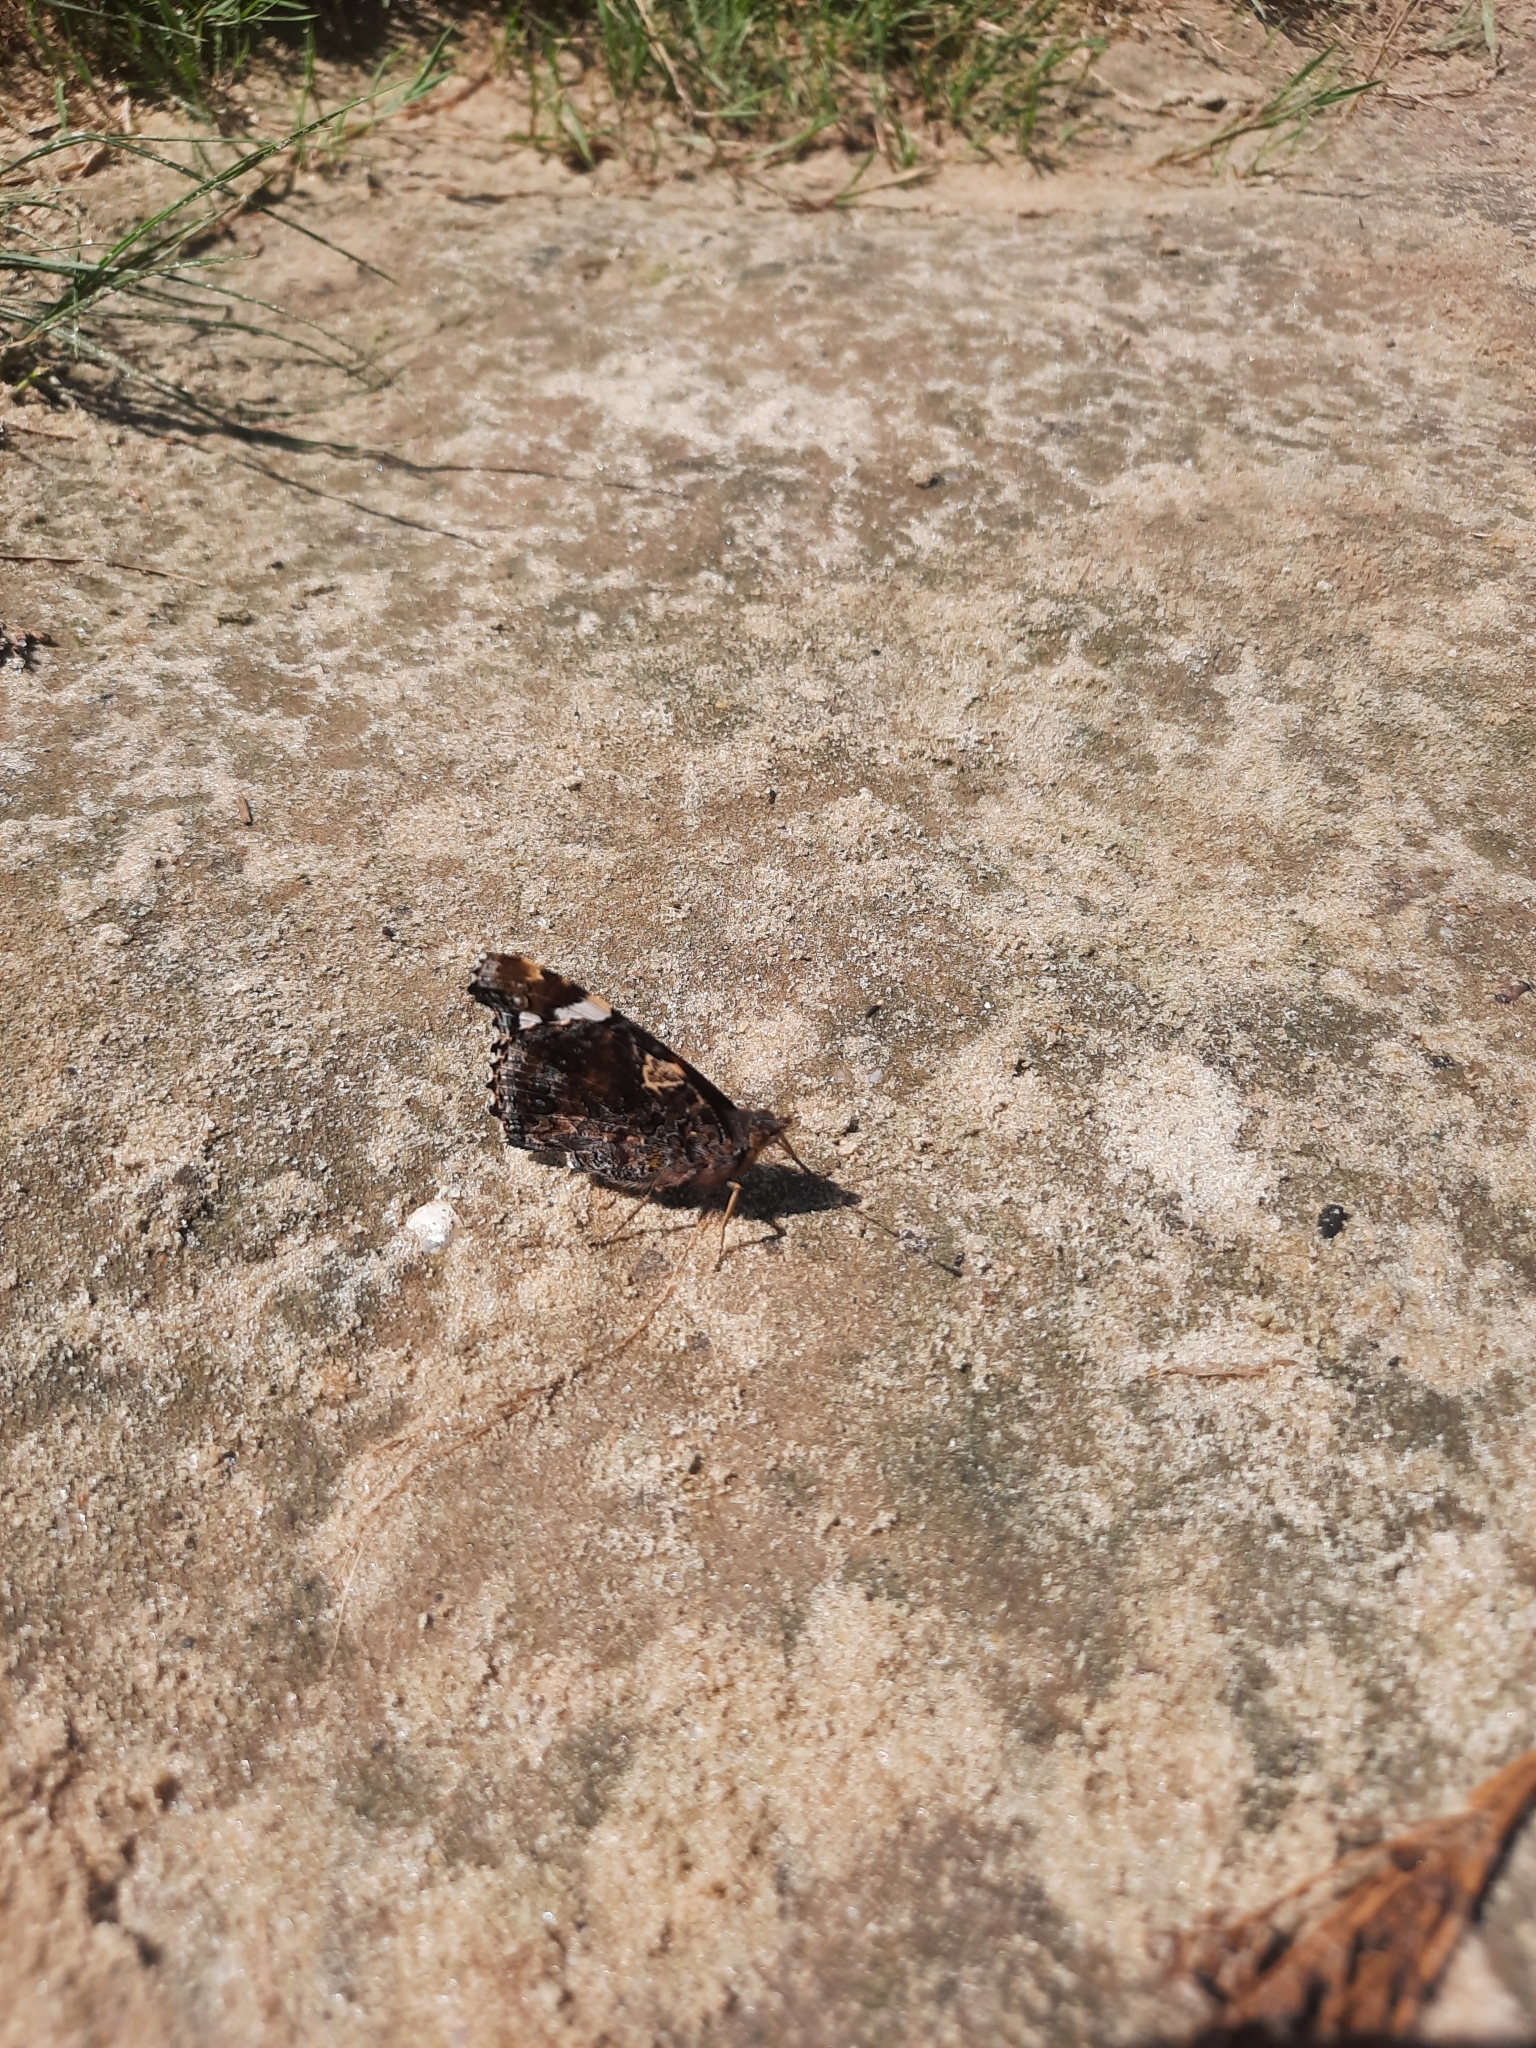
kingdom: Animalia
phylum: Arthropoda
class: Insecta
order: Lepidoptera
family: Nymphalidae
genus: Vanessa
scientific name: Vanessa atalanta
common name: Red admiral
